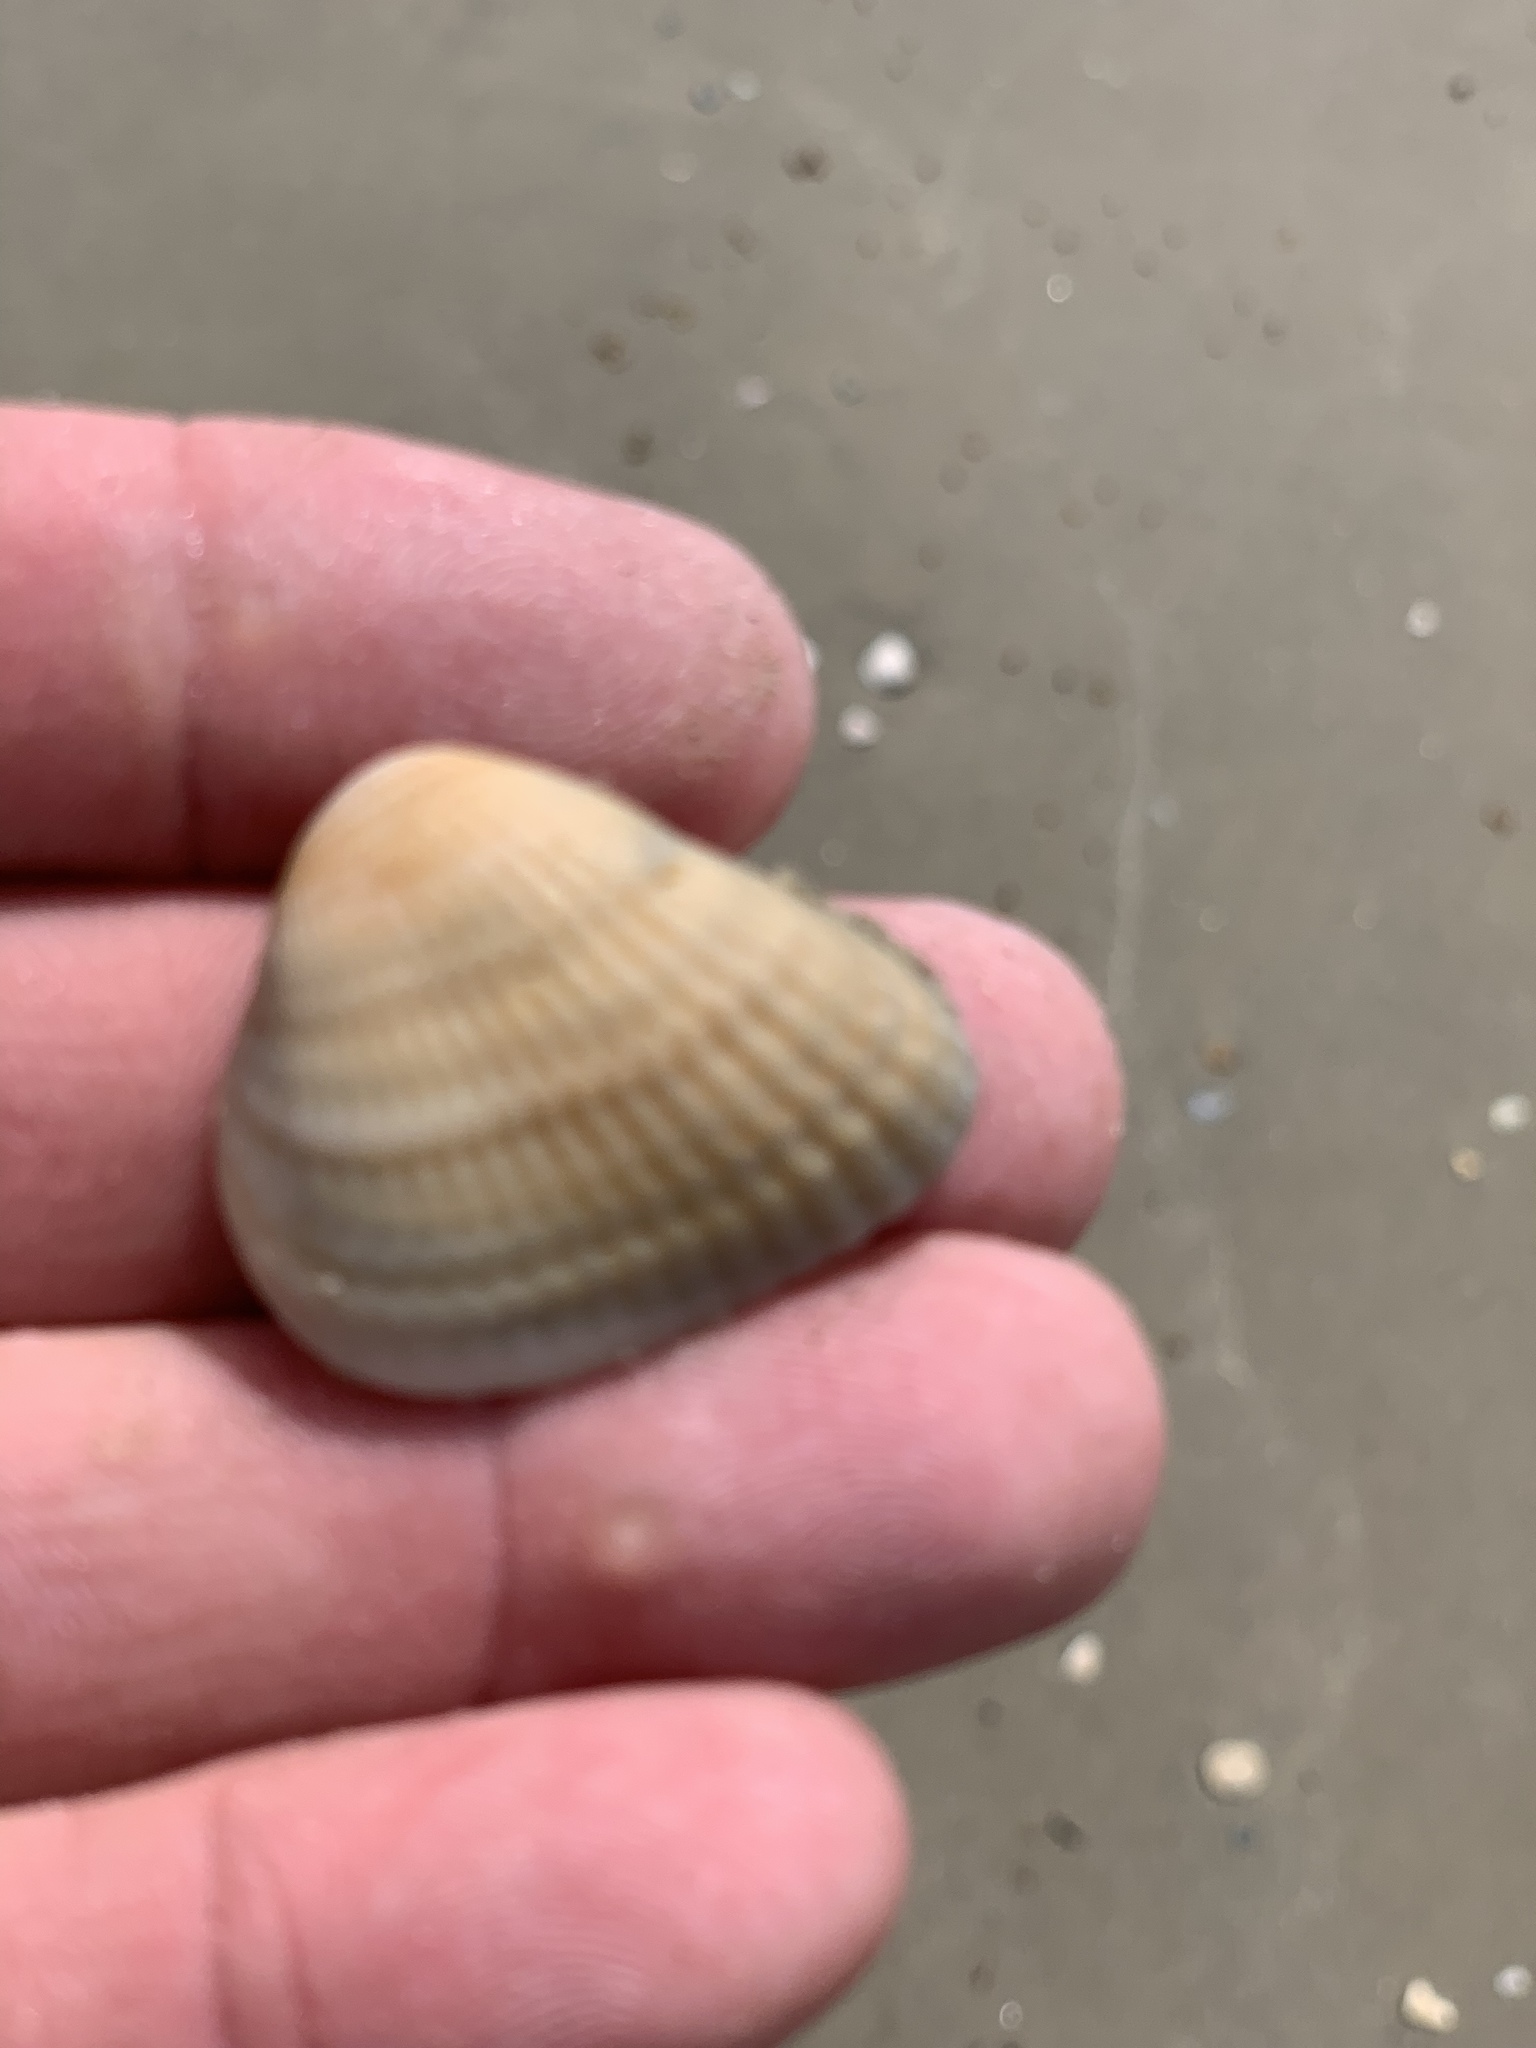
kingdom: Animalia
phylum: Mollusca
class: Bivalvia
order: Arcida
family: Noetiidae
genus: Noetia
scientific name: Noetia ponderosa
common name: Ponderous ark
